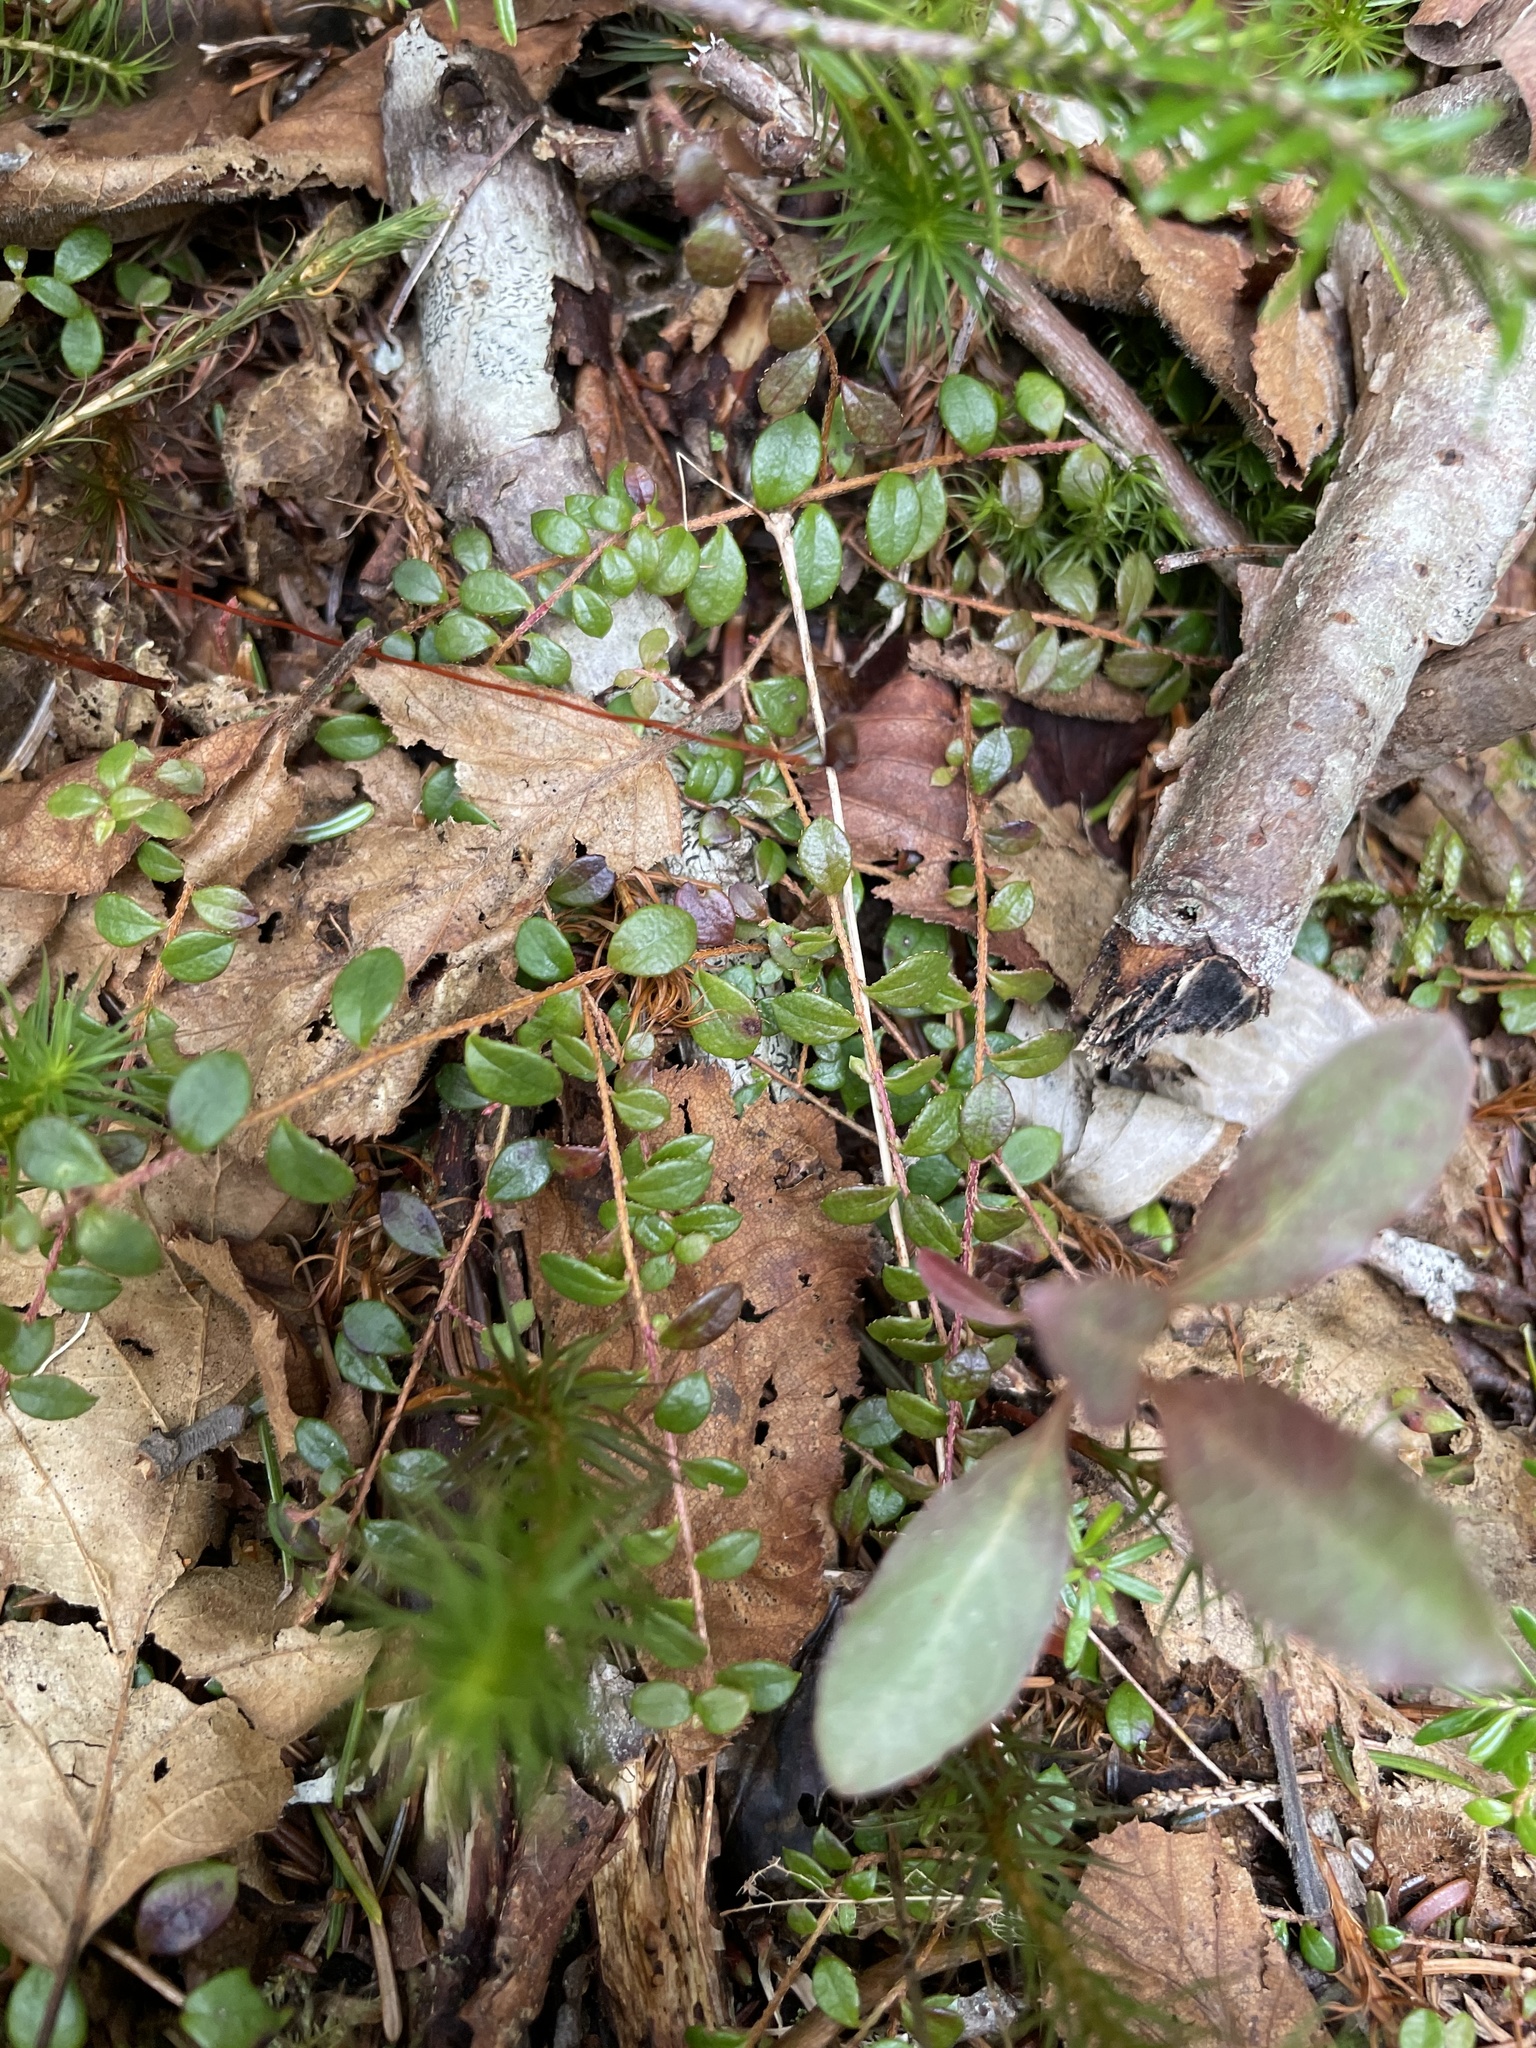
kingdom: Plantae
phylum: Tracheophyta
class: Magnoliopsida
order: Dipsacales
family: Caprifoliaceae
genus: Symphoricarpos
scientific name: Symphoricarpos albus
